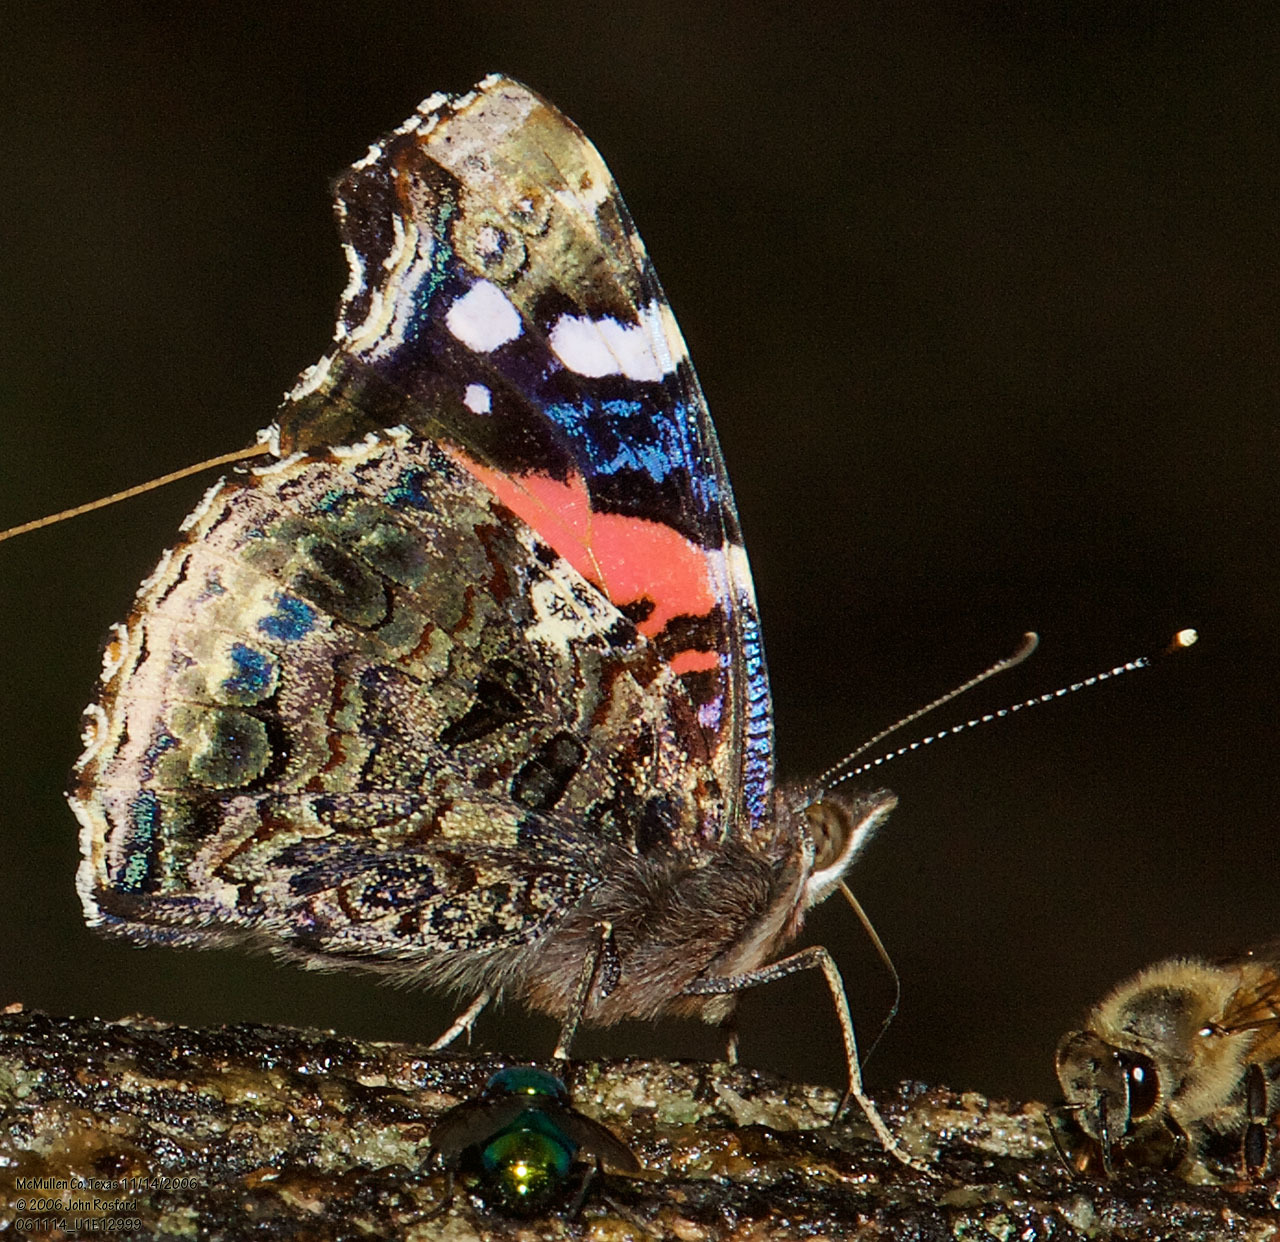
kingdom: Animalia
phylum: Arthropoda
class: Insecta
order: Lepidoptera
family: Nymphalidae
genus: Vanessa
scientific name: Vanessa atalanta
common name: Red admiral
